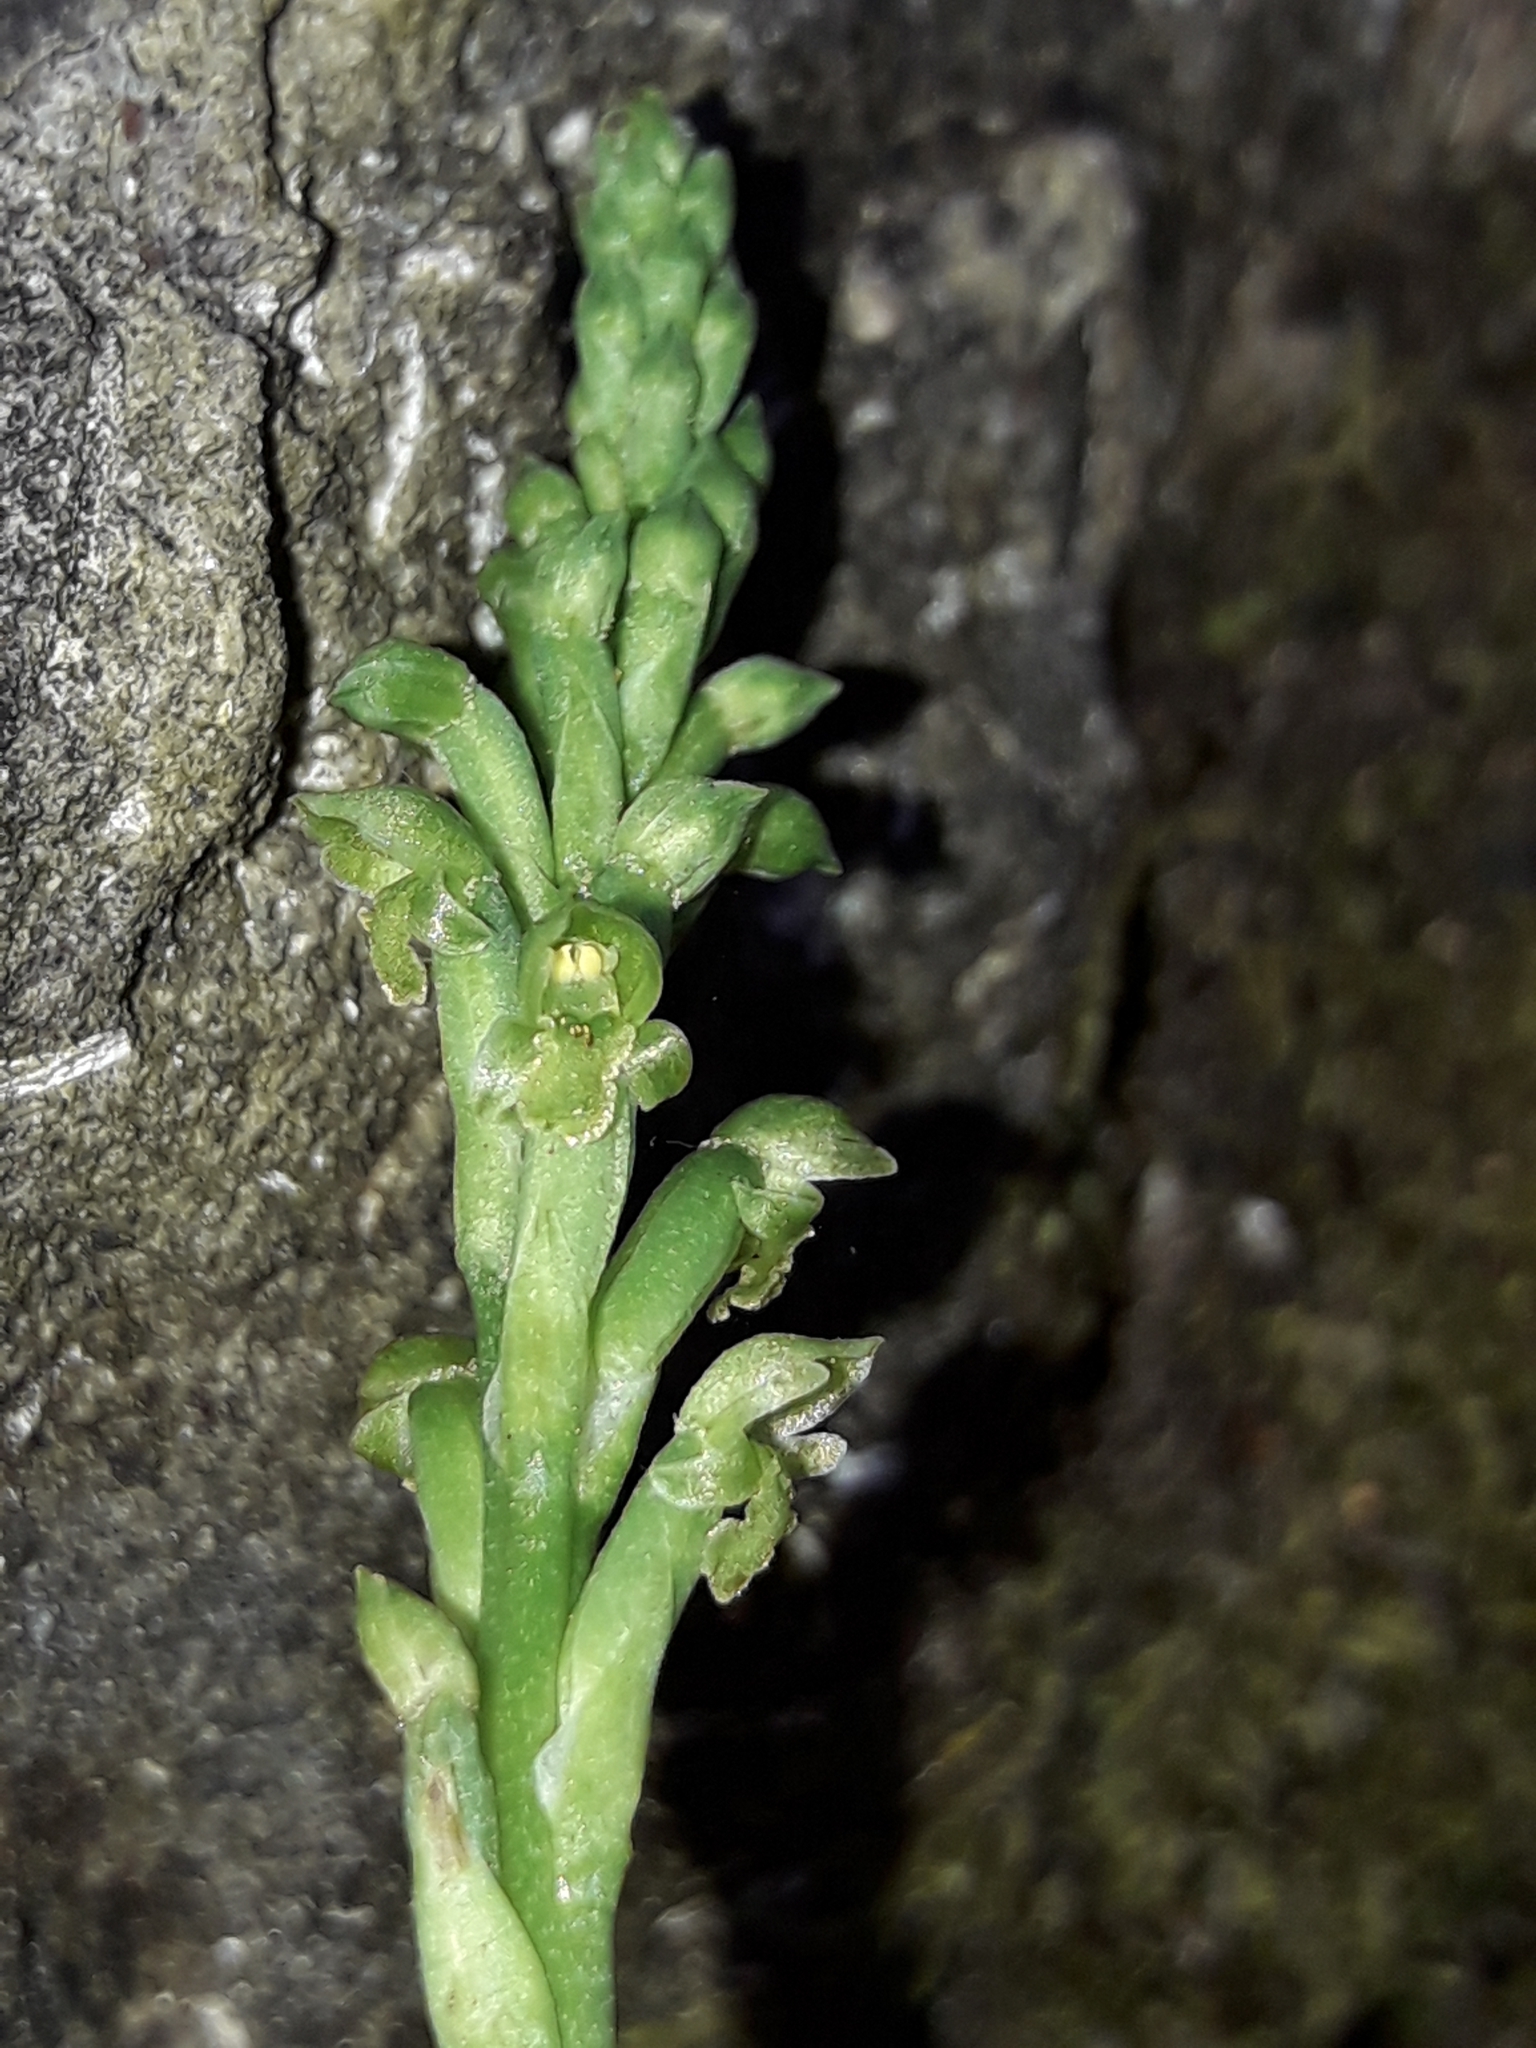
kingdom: Plantae
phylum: Tracheophyta
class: Liliopsida
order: Asparagales
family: Orchidaceae
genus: Microtis
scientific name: Microtis unifolia
